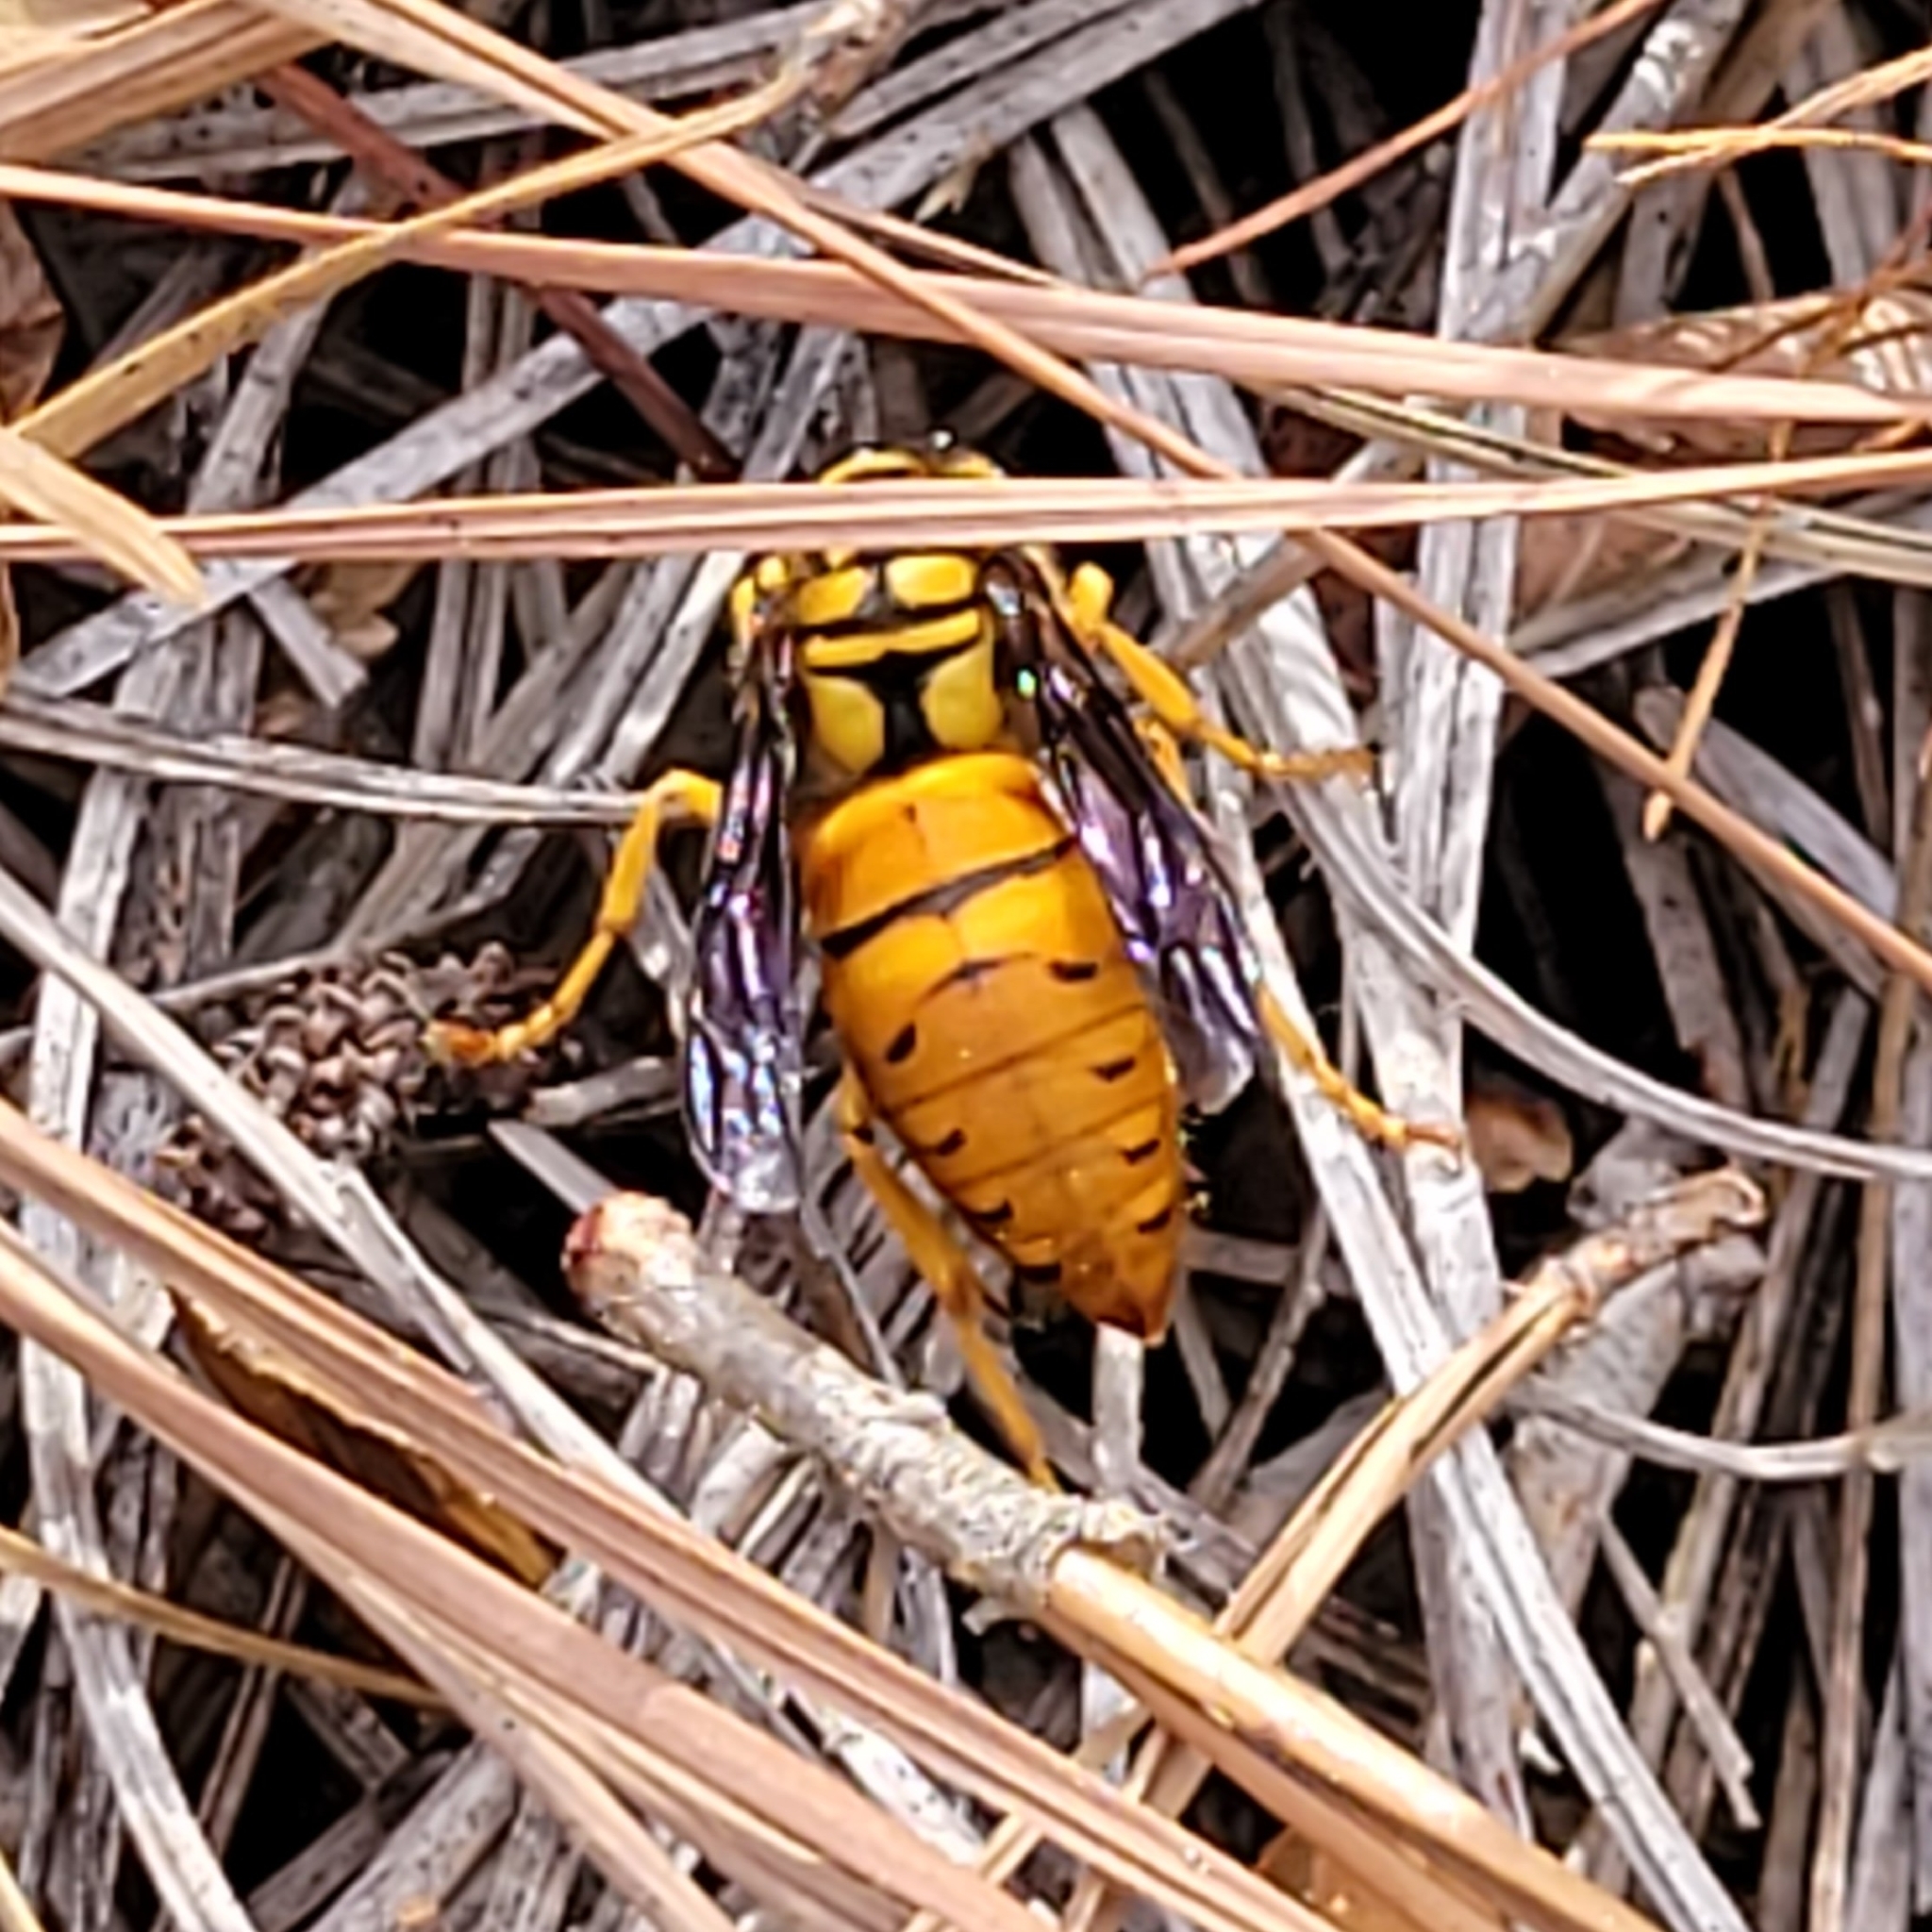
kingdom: Animalia
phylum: Arthropoda
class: Insecta
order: Hymenoptera
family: Vespidae
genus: Vespula
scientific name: Vespula squamosa
